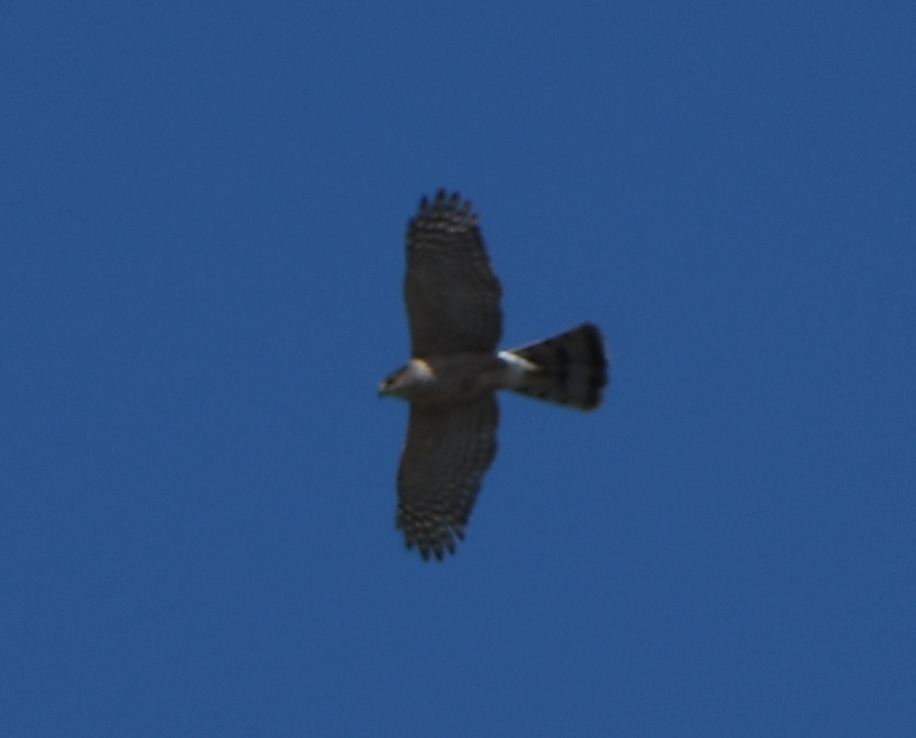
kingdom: Animalia
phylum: Chordata
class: Aves
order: Accipitriformes
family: Accipitridae
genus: Accipiter
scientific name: Accipiter cooperii
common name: Cooper's hawk
